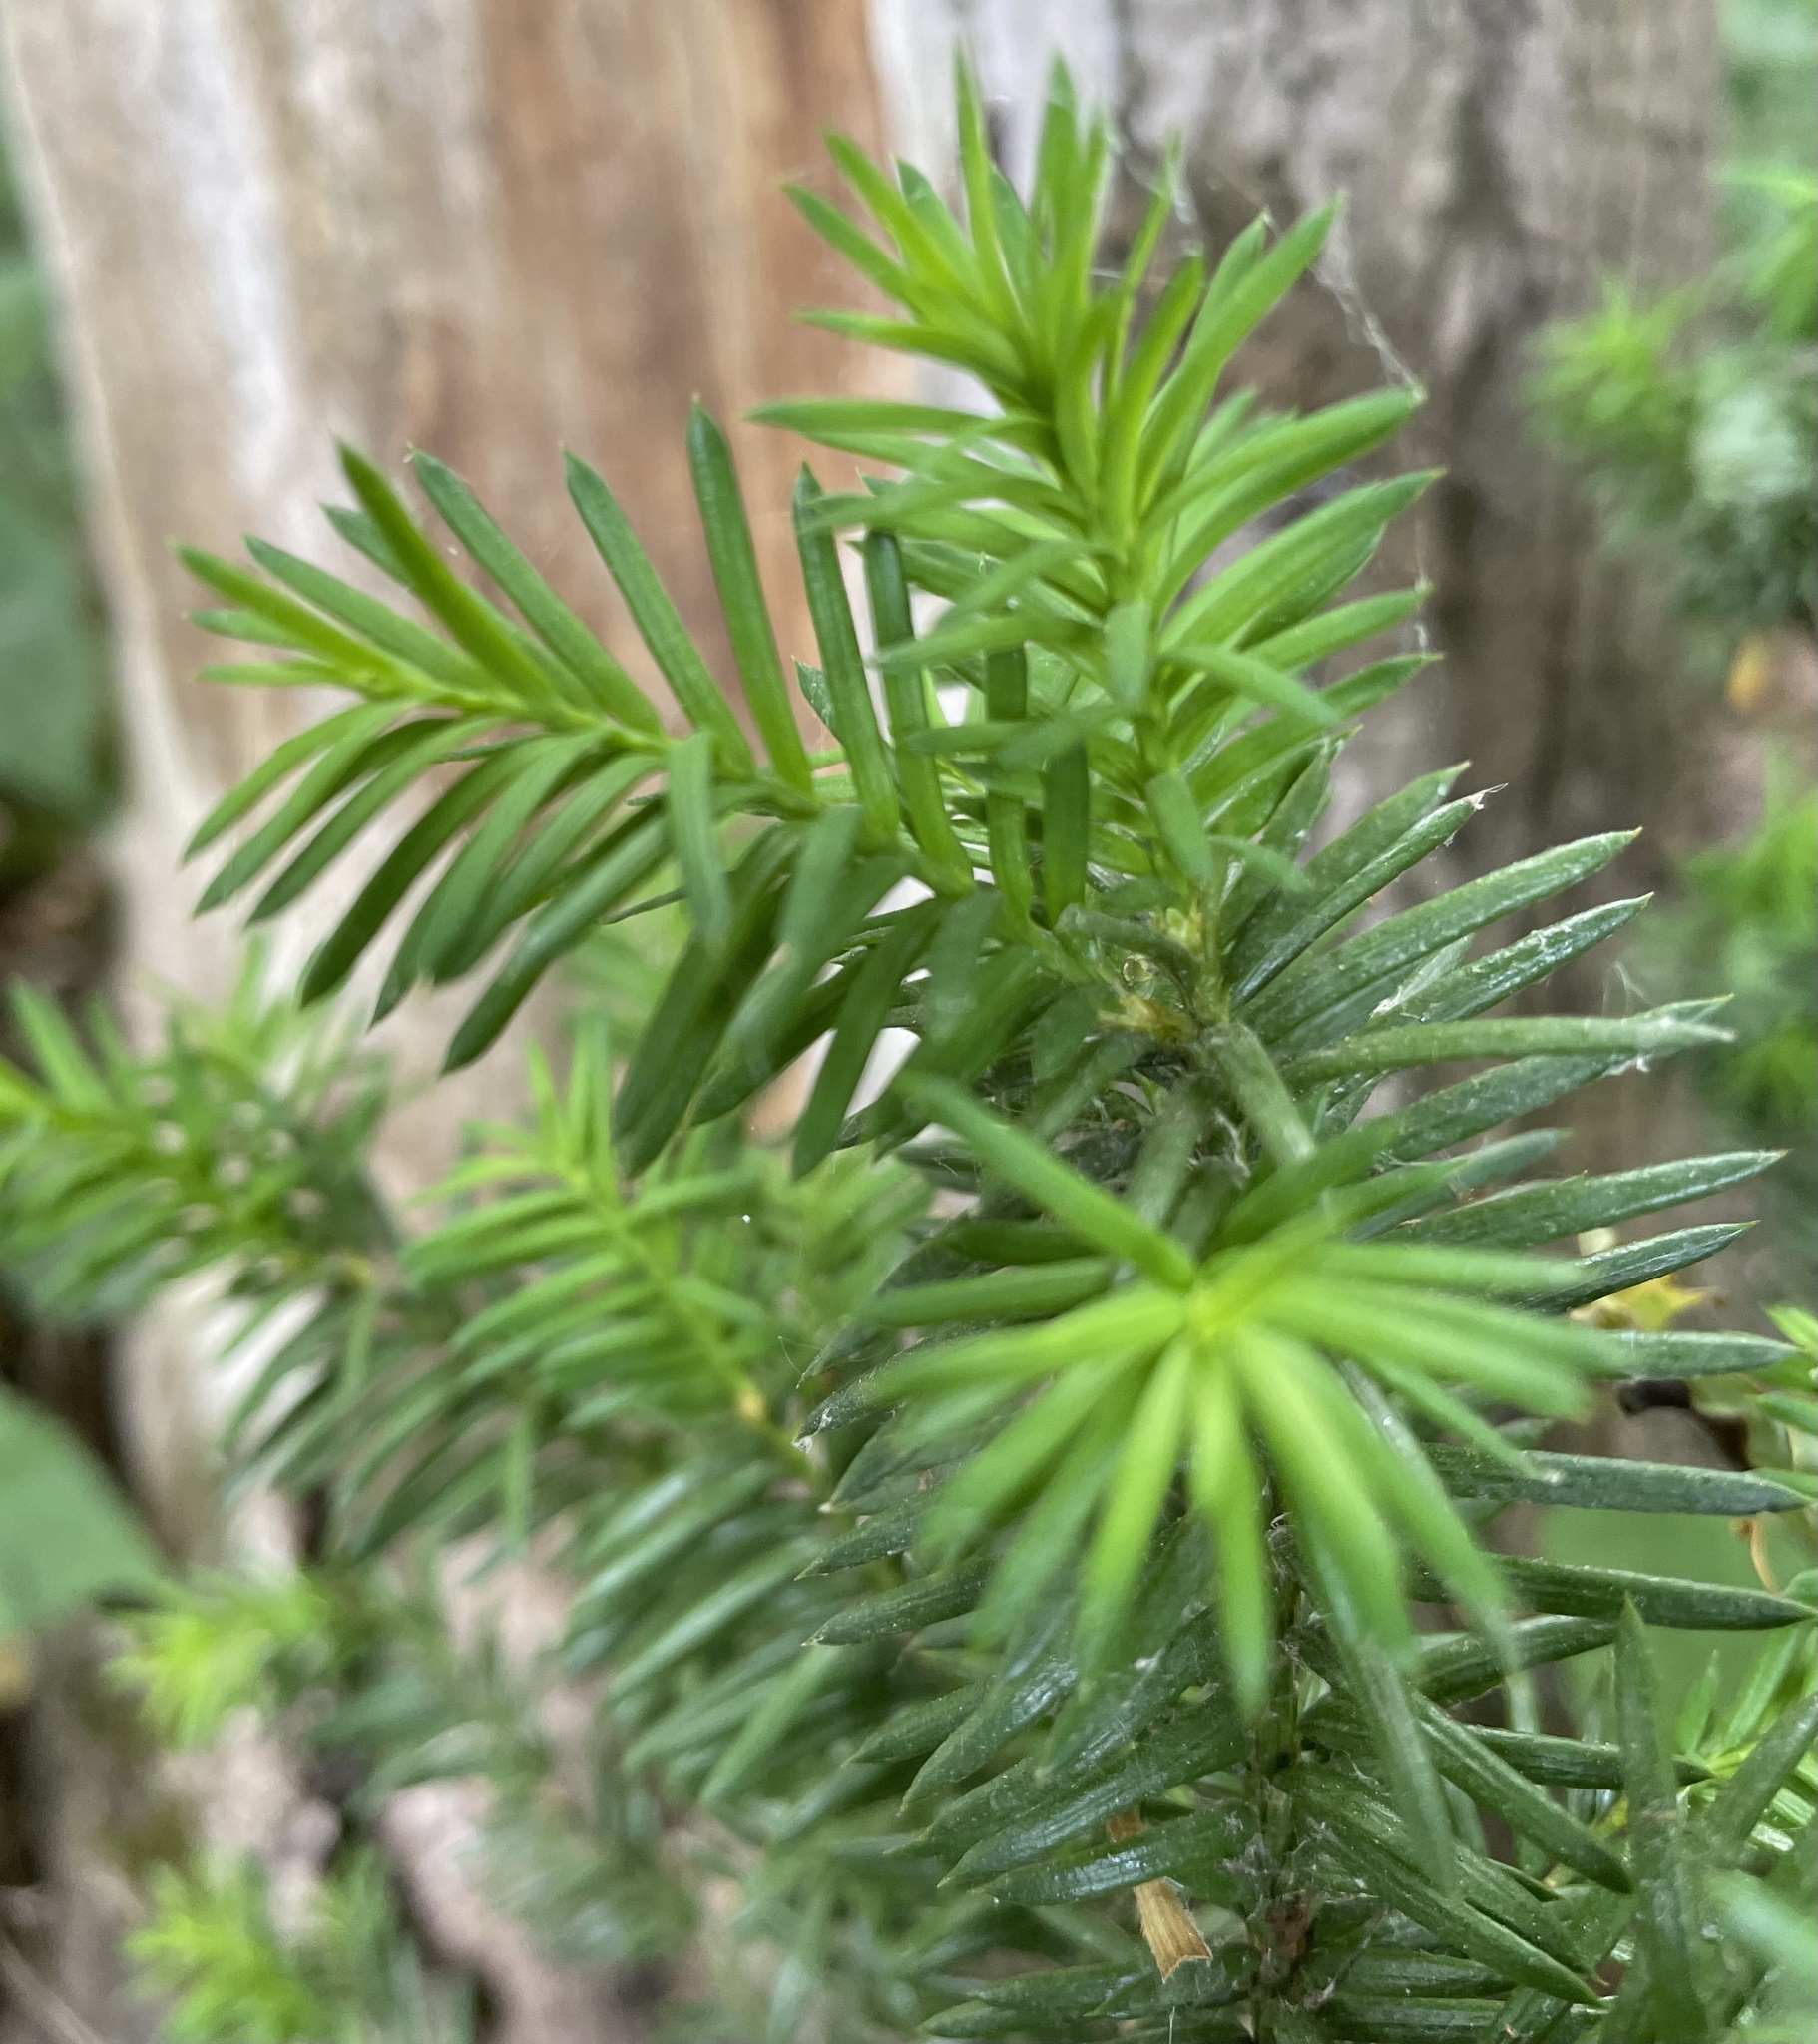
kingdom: Plantae
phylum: Tracheophyta
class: Pinopsida
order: Pinales
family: Taxaceae
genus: Taxus
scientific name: Taxus canadensis
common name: American yew
